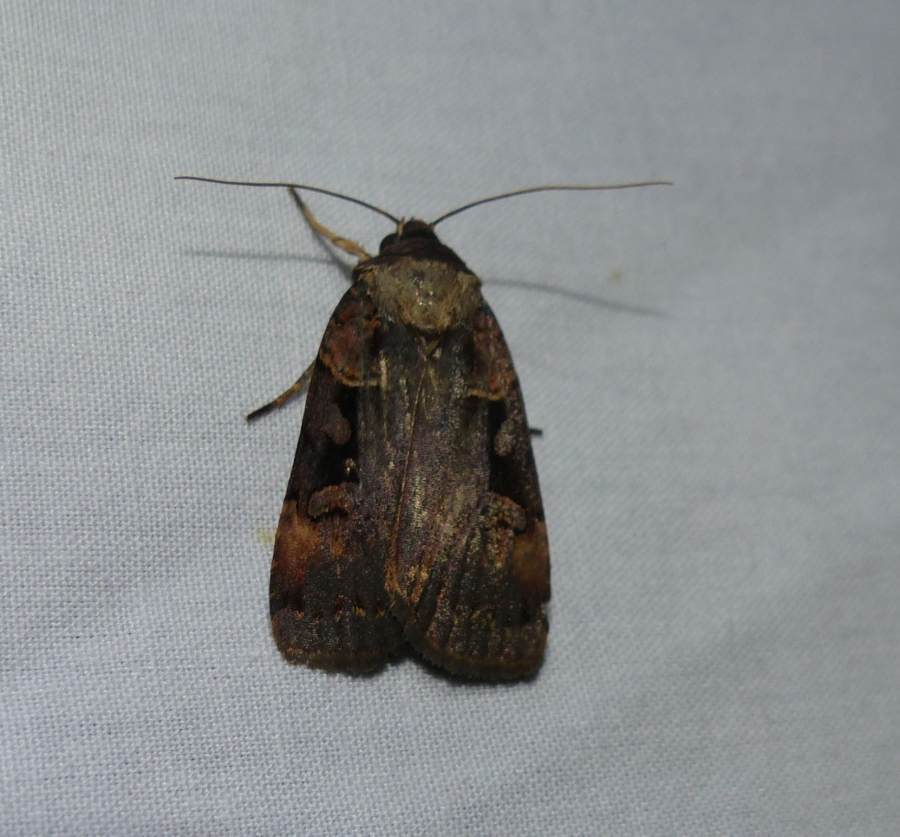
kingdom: Animalia
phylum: Arthropoda
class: Insecta
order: Lepidoptera
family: Noctuidae
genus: Pseudohermonassa
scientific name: Pseudohermonassa bicarnea
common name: Pink spotted dart
